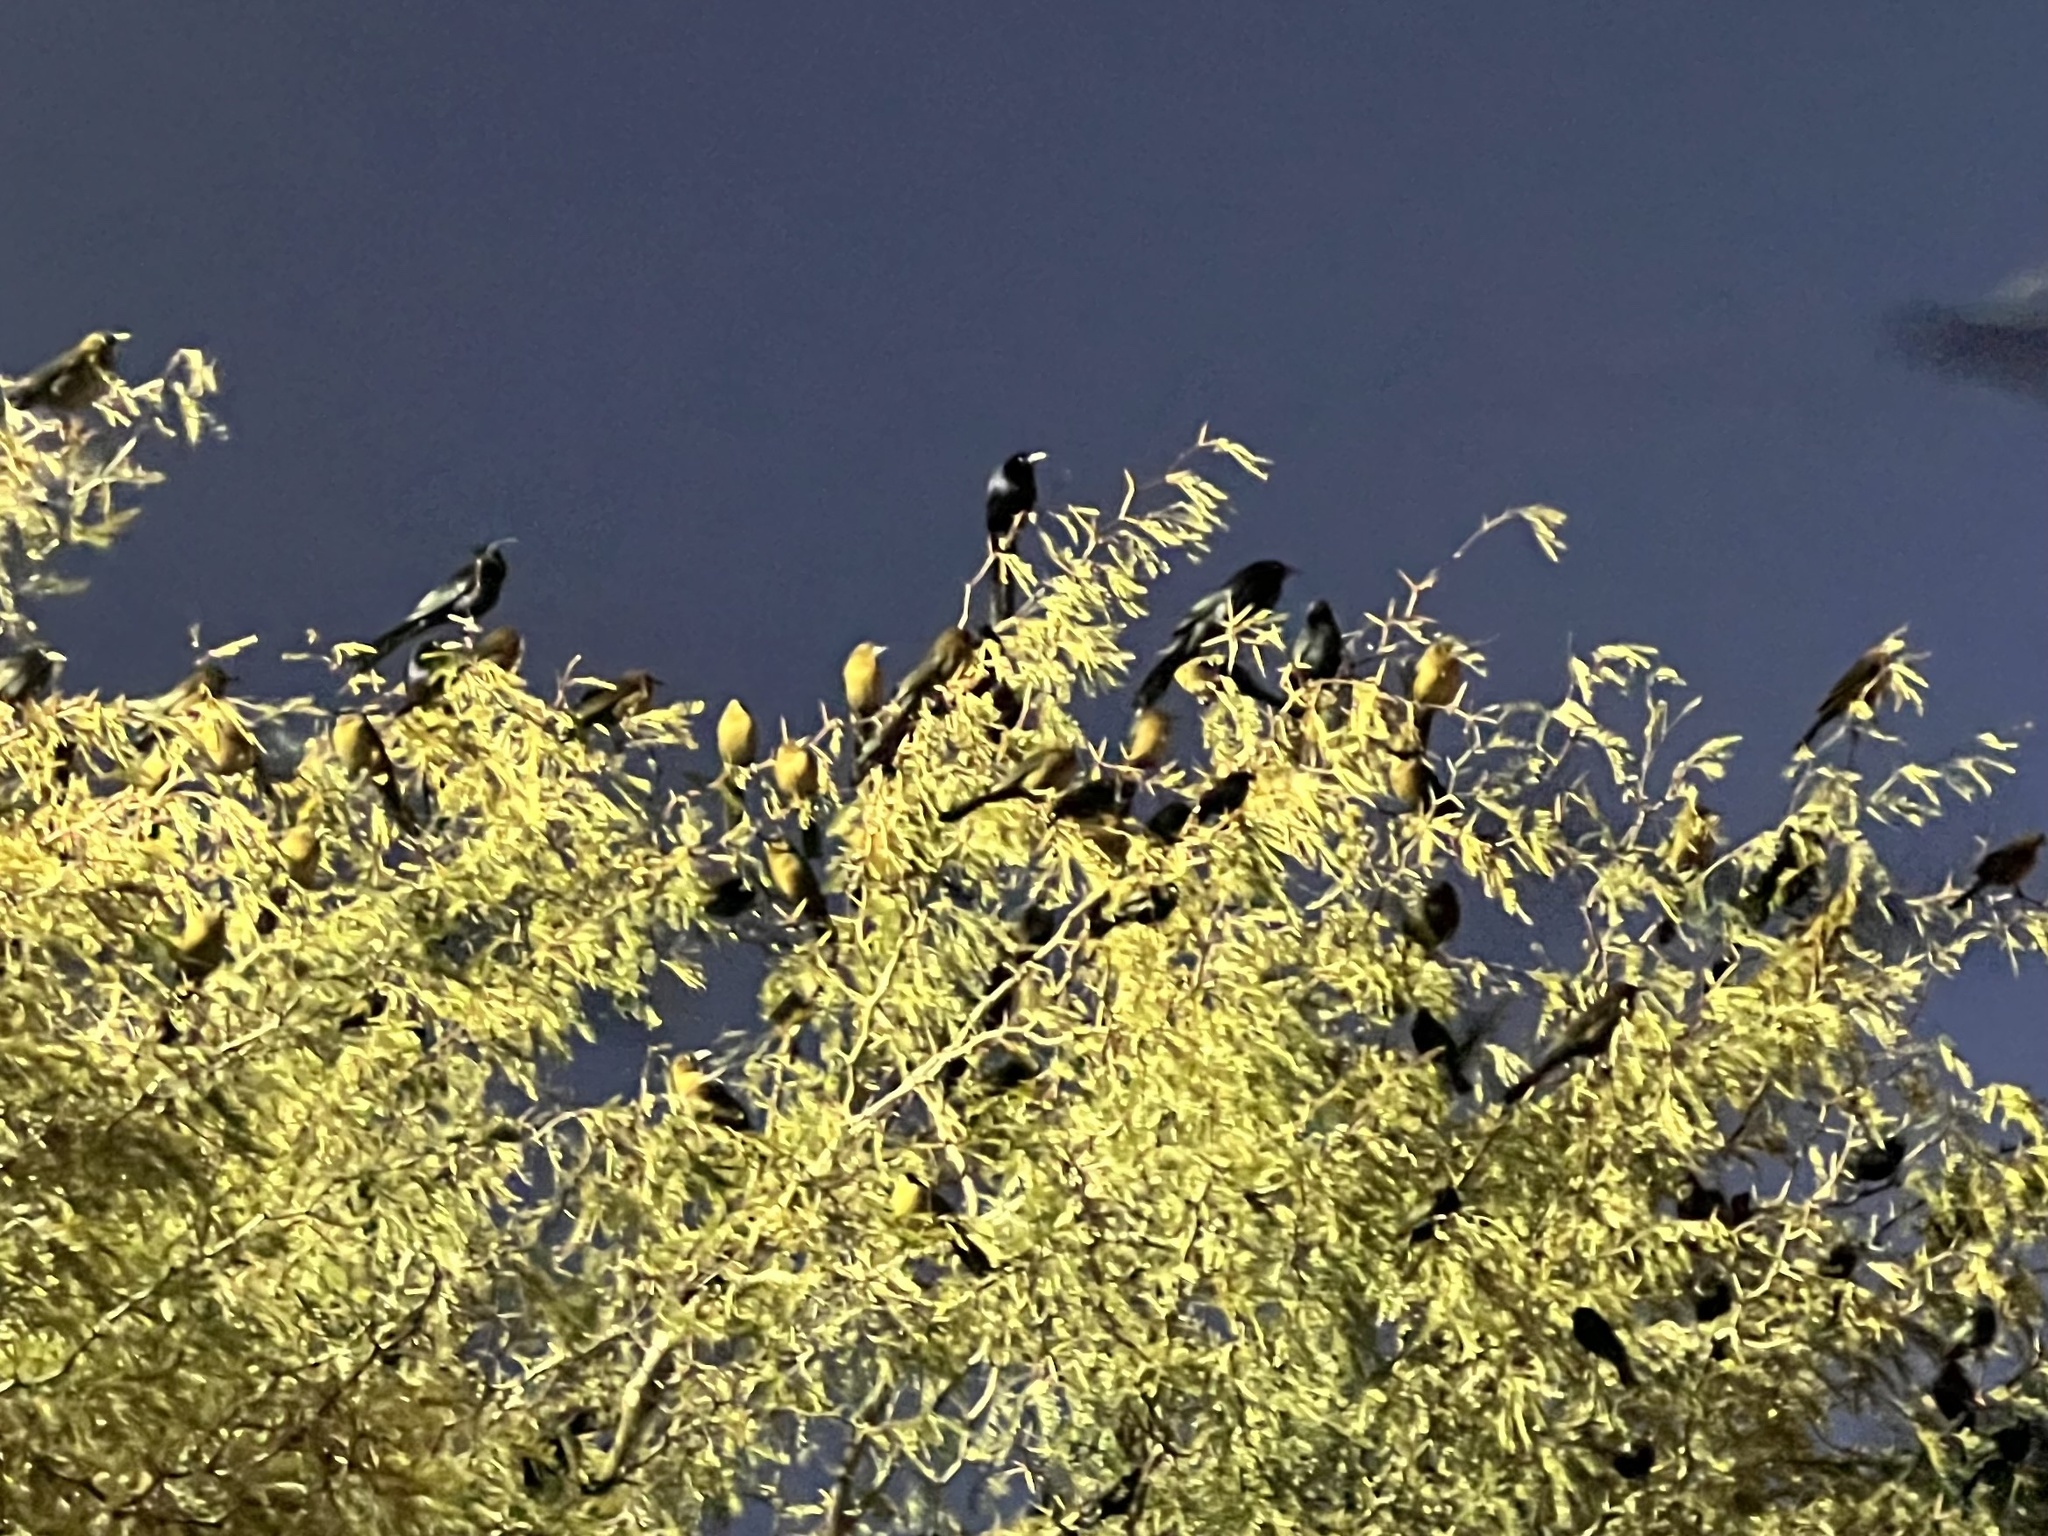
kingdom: Animalia
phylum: Chordata
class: Aves
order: Passeriformes
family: Icteridae
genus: Quiscalus
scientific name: Quiscalus mexicanus
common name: Great-tailed grackle
